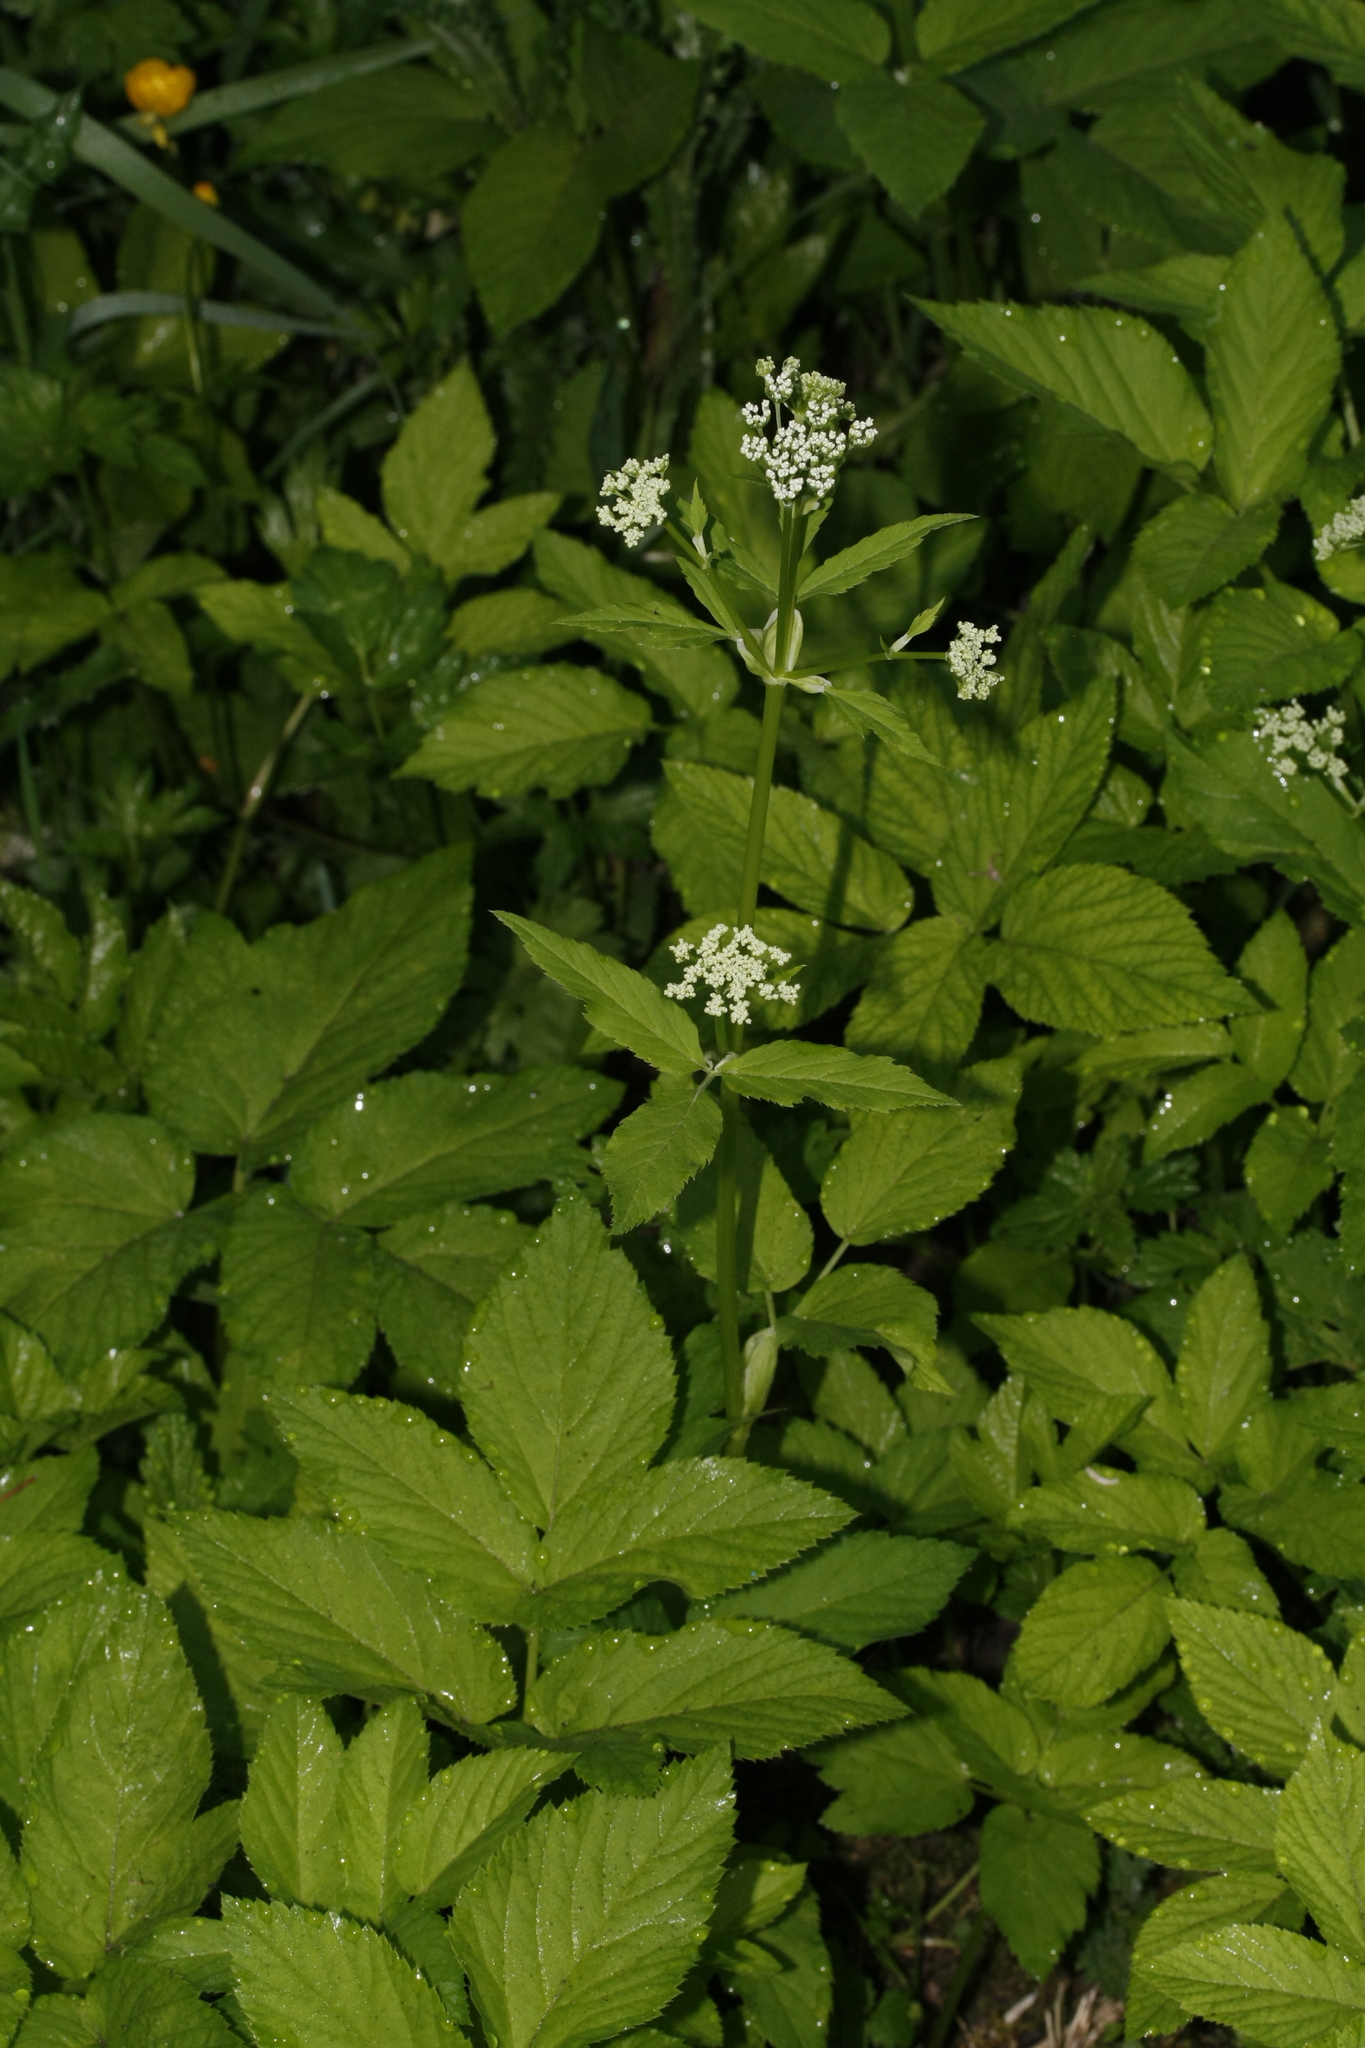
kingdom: Plantae
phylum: Tracheophyta
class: Magnoliopsida
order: Apiales
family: Apiaceae
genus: Aegopodium
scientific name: Aegopodium podagraria
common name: Ground-elder
